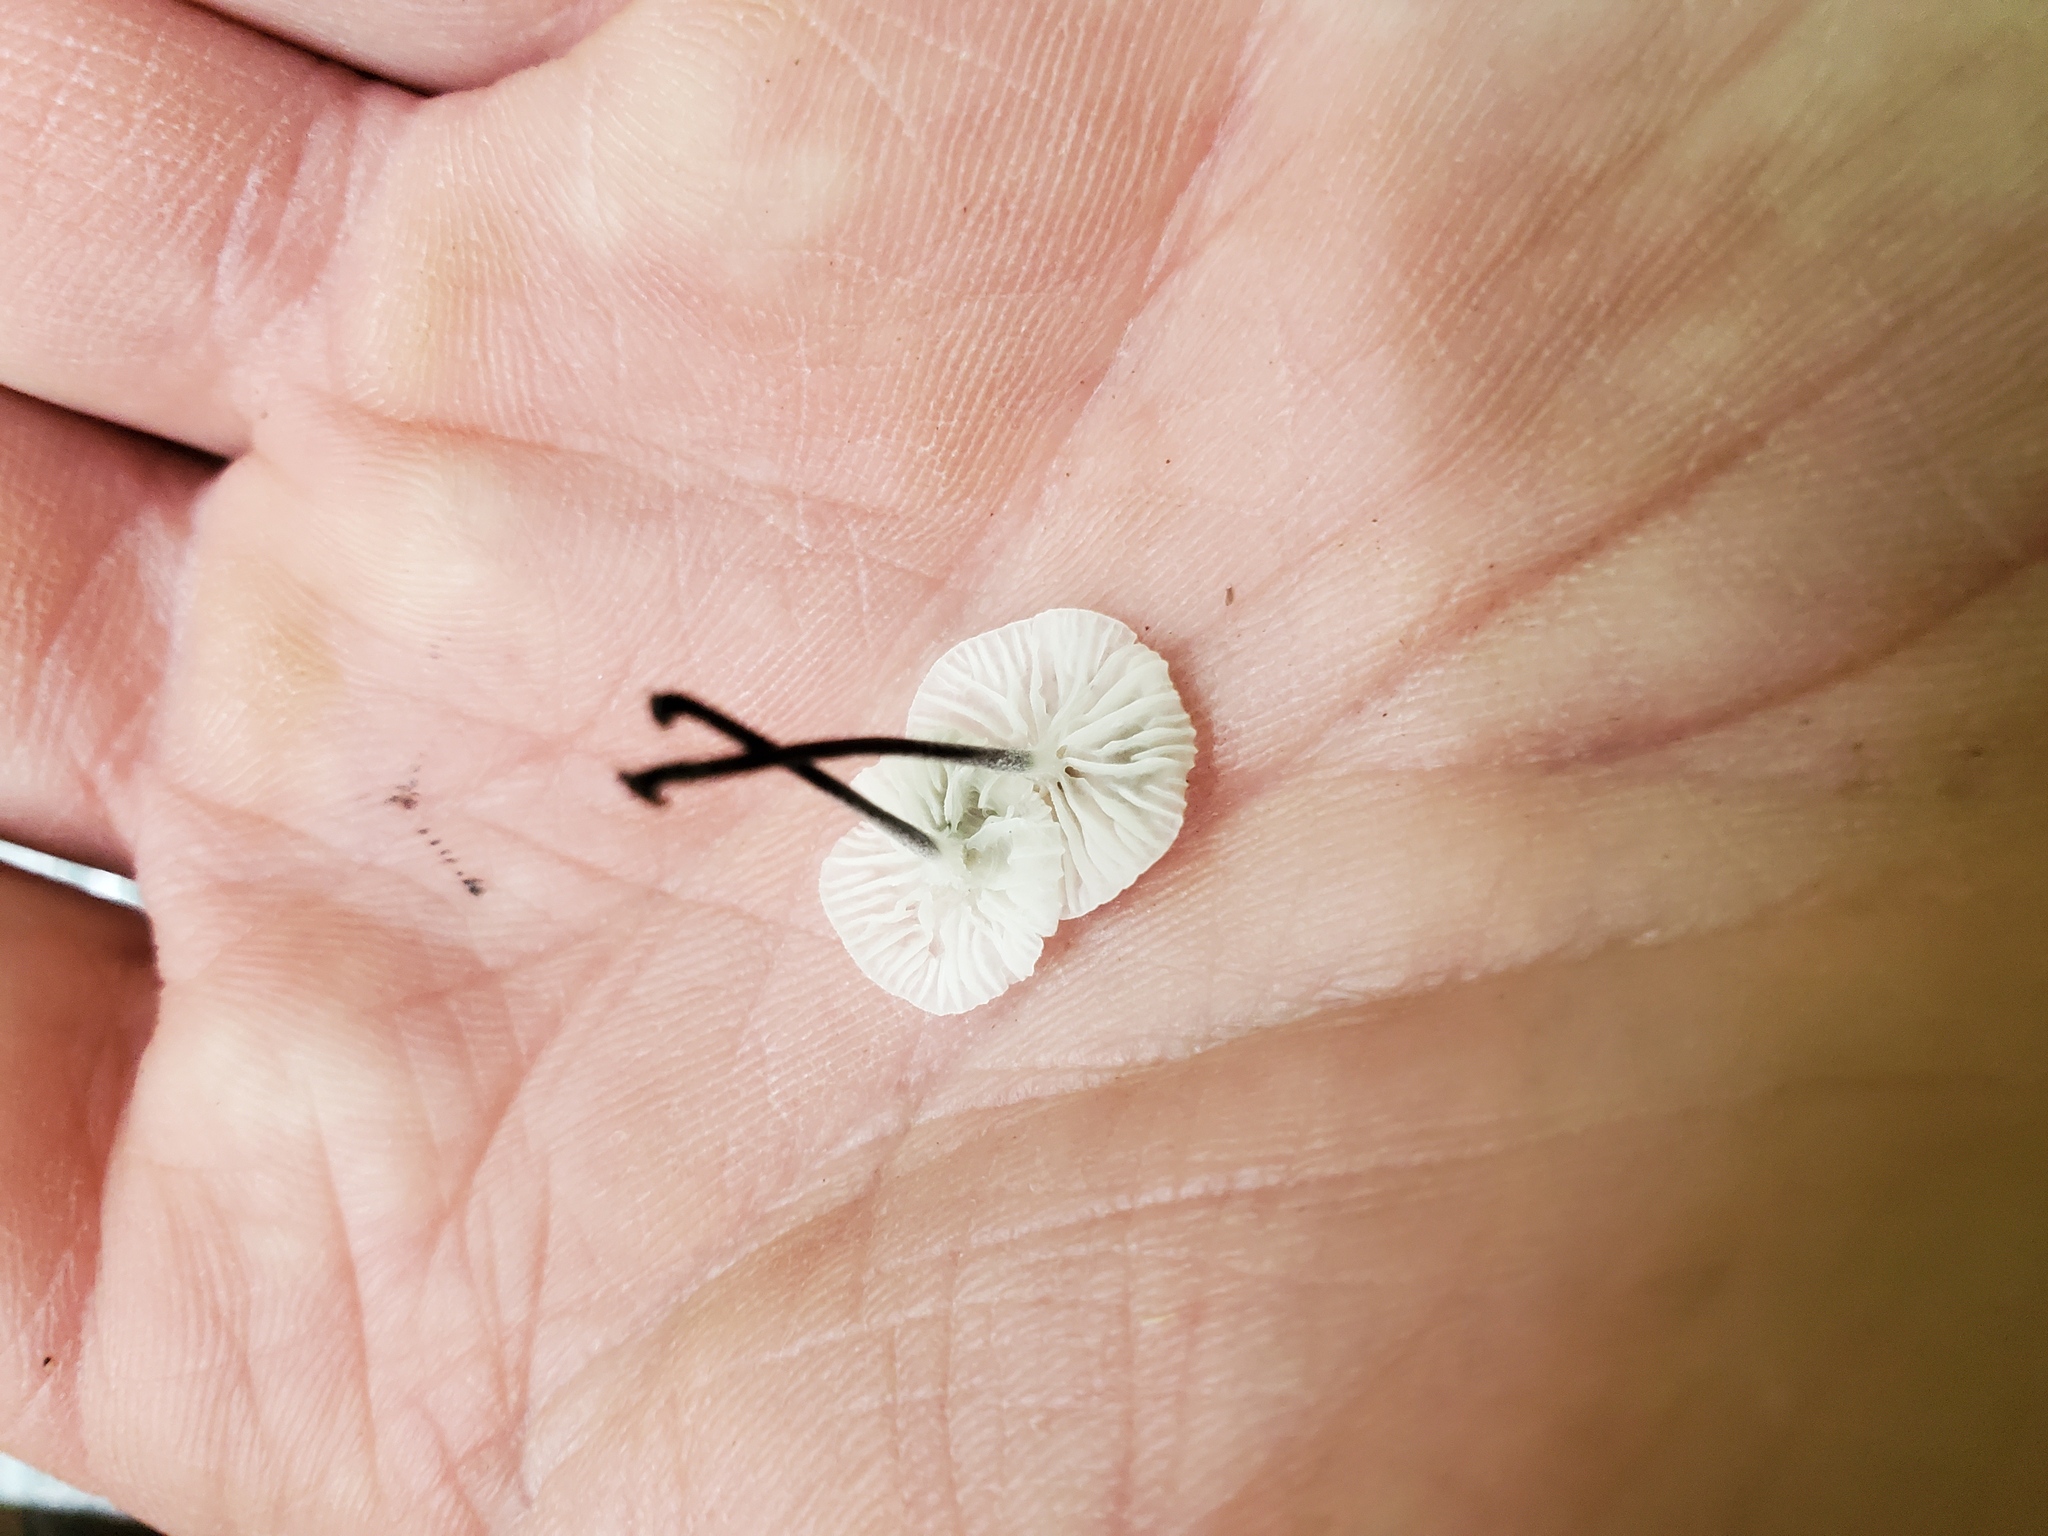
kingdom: Fungi
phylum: Basidiomycota
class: Agaricomycetes
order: Agaricales
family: Marasmiaceae
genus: Tetrapyrgos
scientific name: Tetrapyrgos nigripes
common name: Black-stalked marasmius
